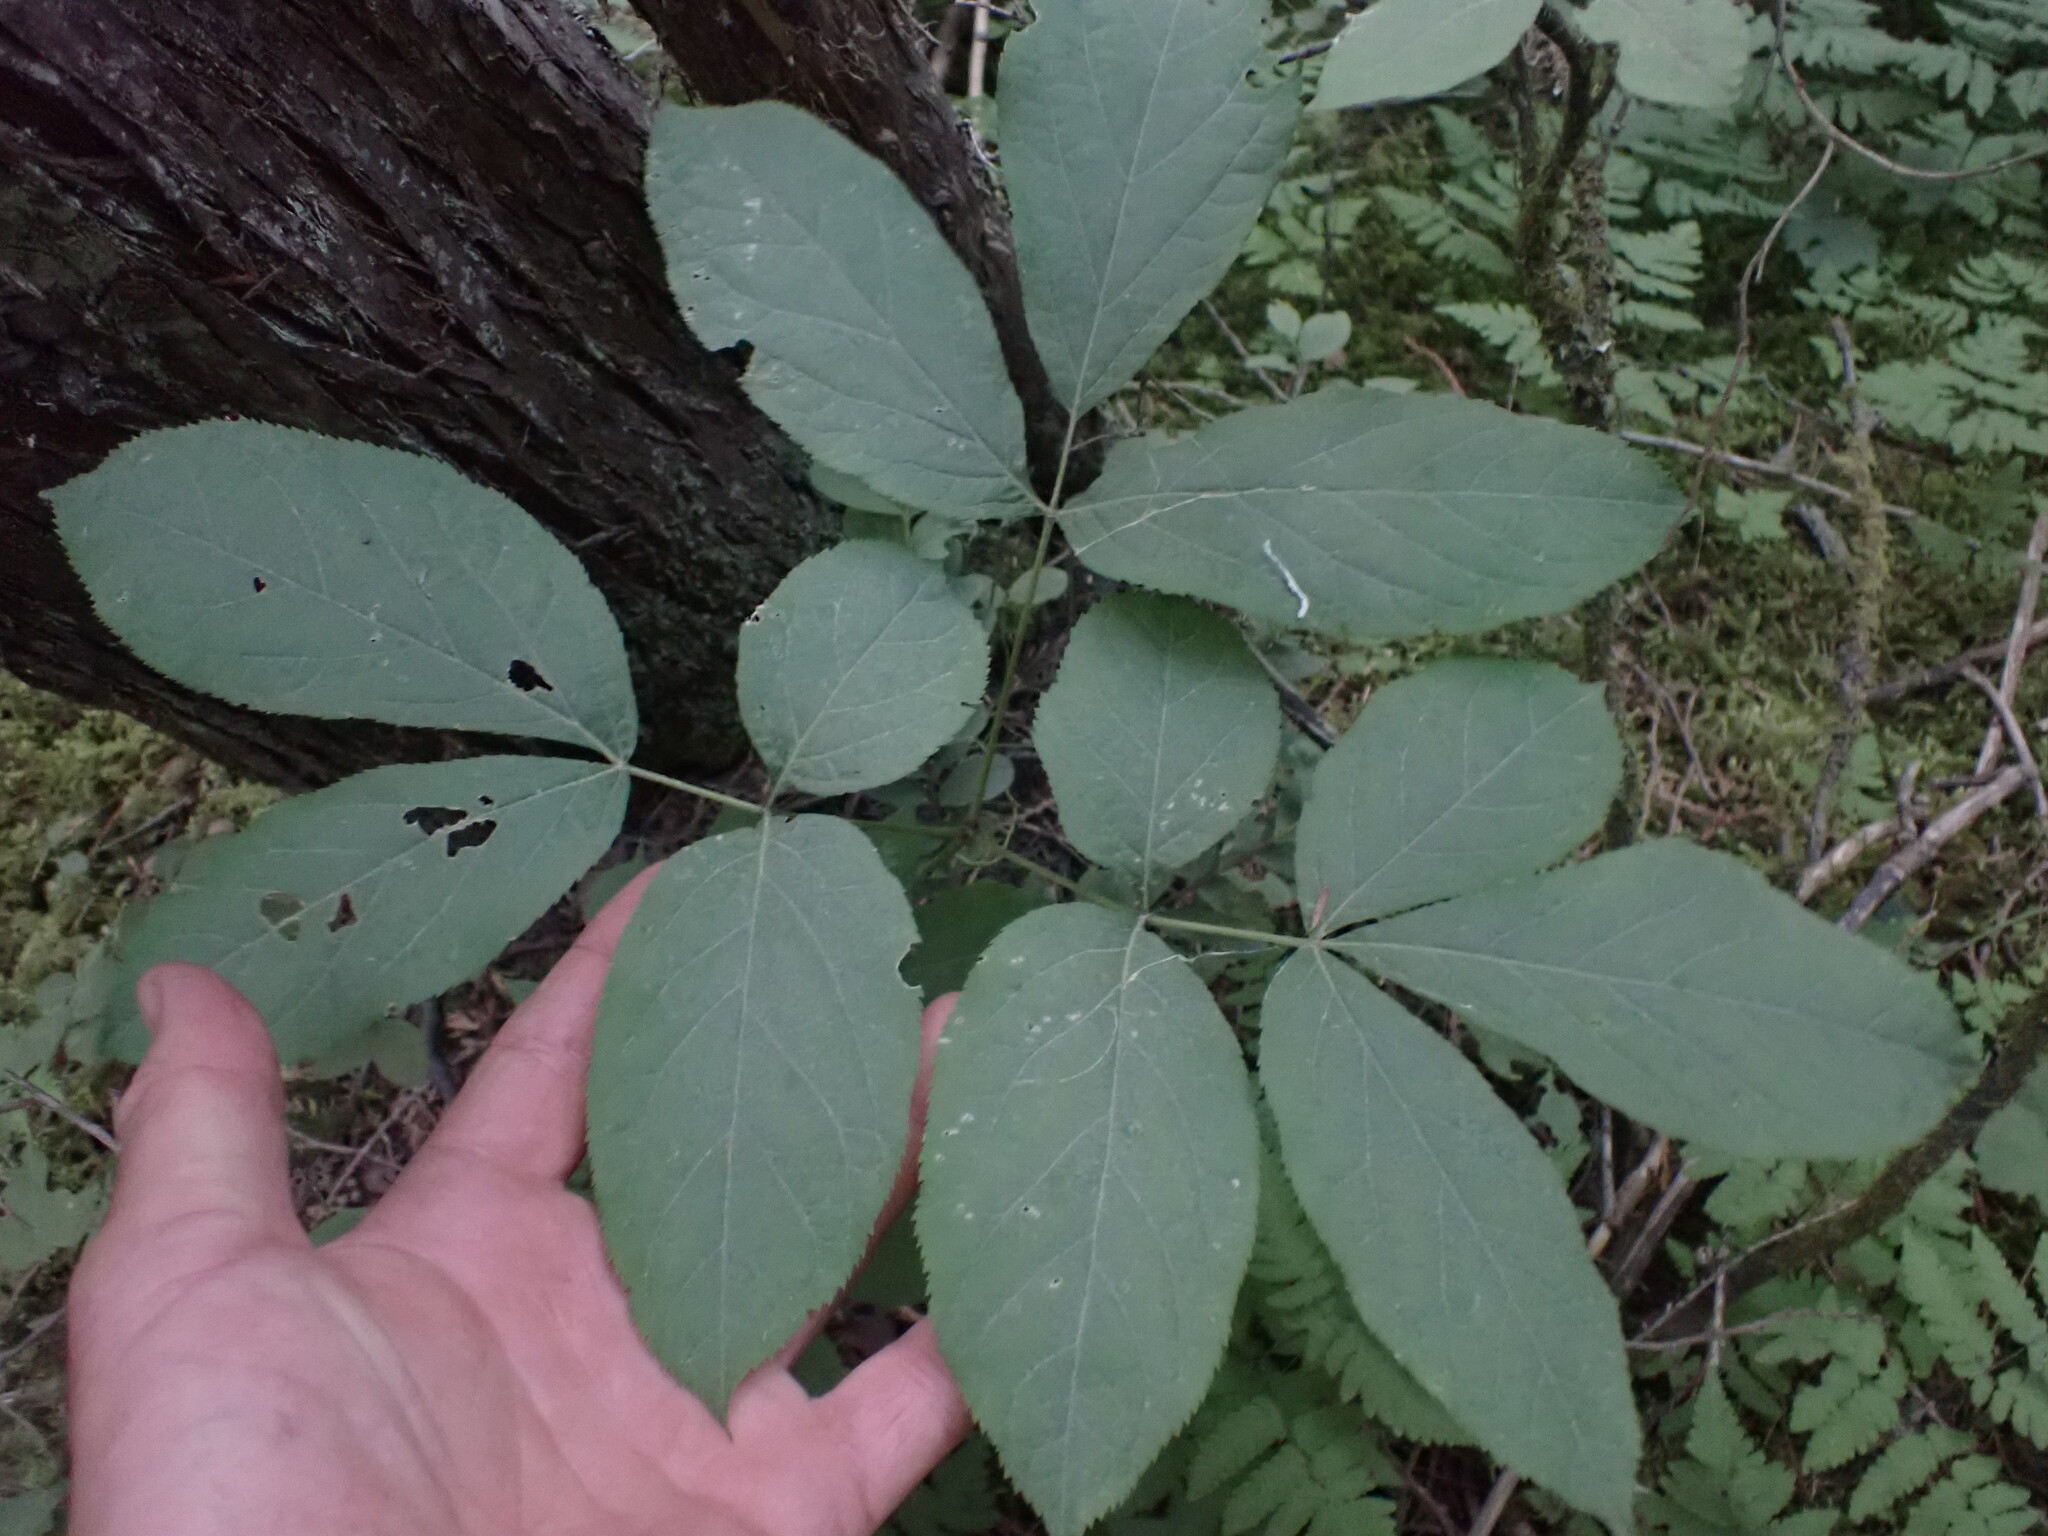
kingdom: Plantae
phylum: Tracheophyta
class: Magnoliopsida
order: Apiales
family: Araliaceae
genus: Aralia
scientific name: Aralia nudicaulis
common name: Wild sarsaparilla
